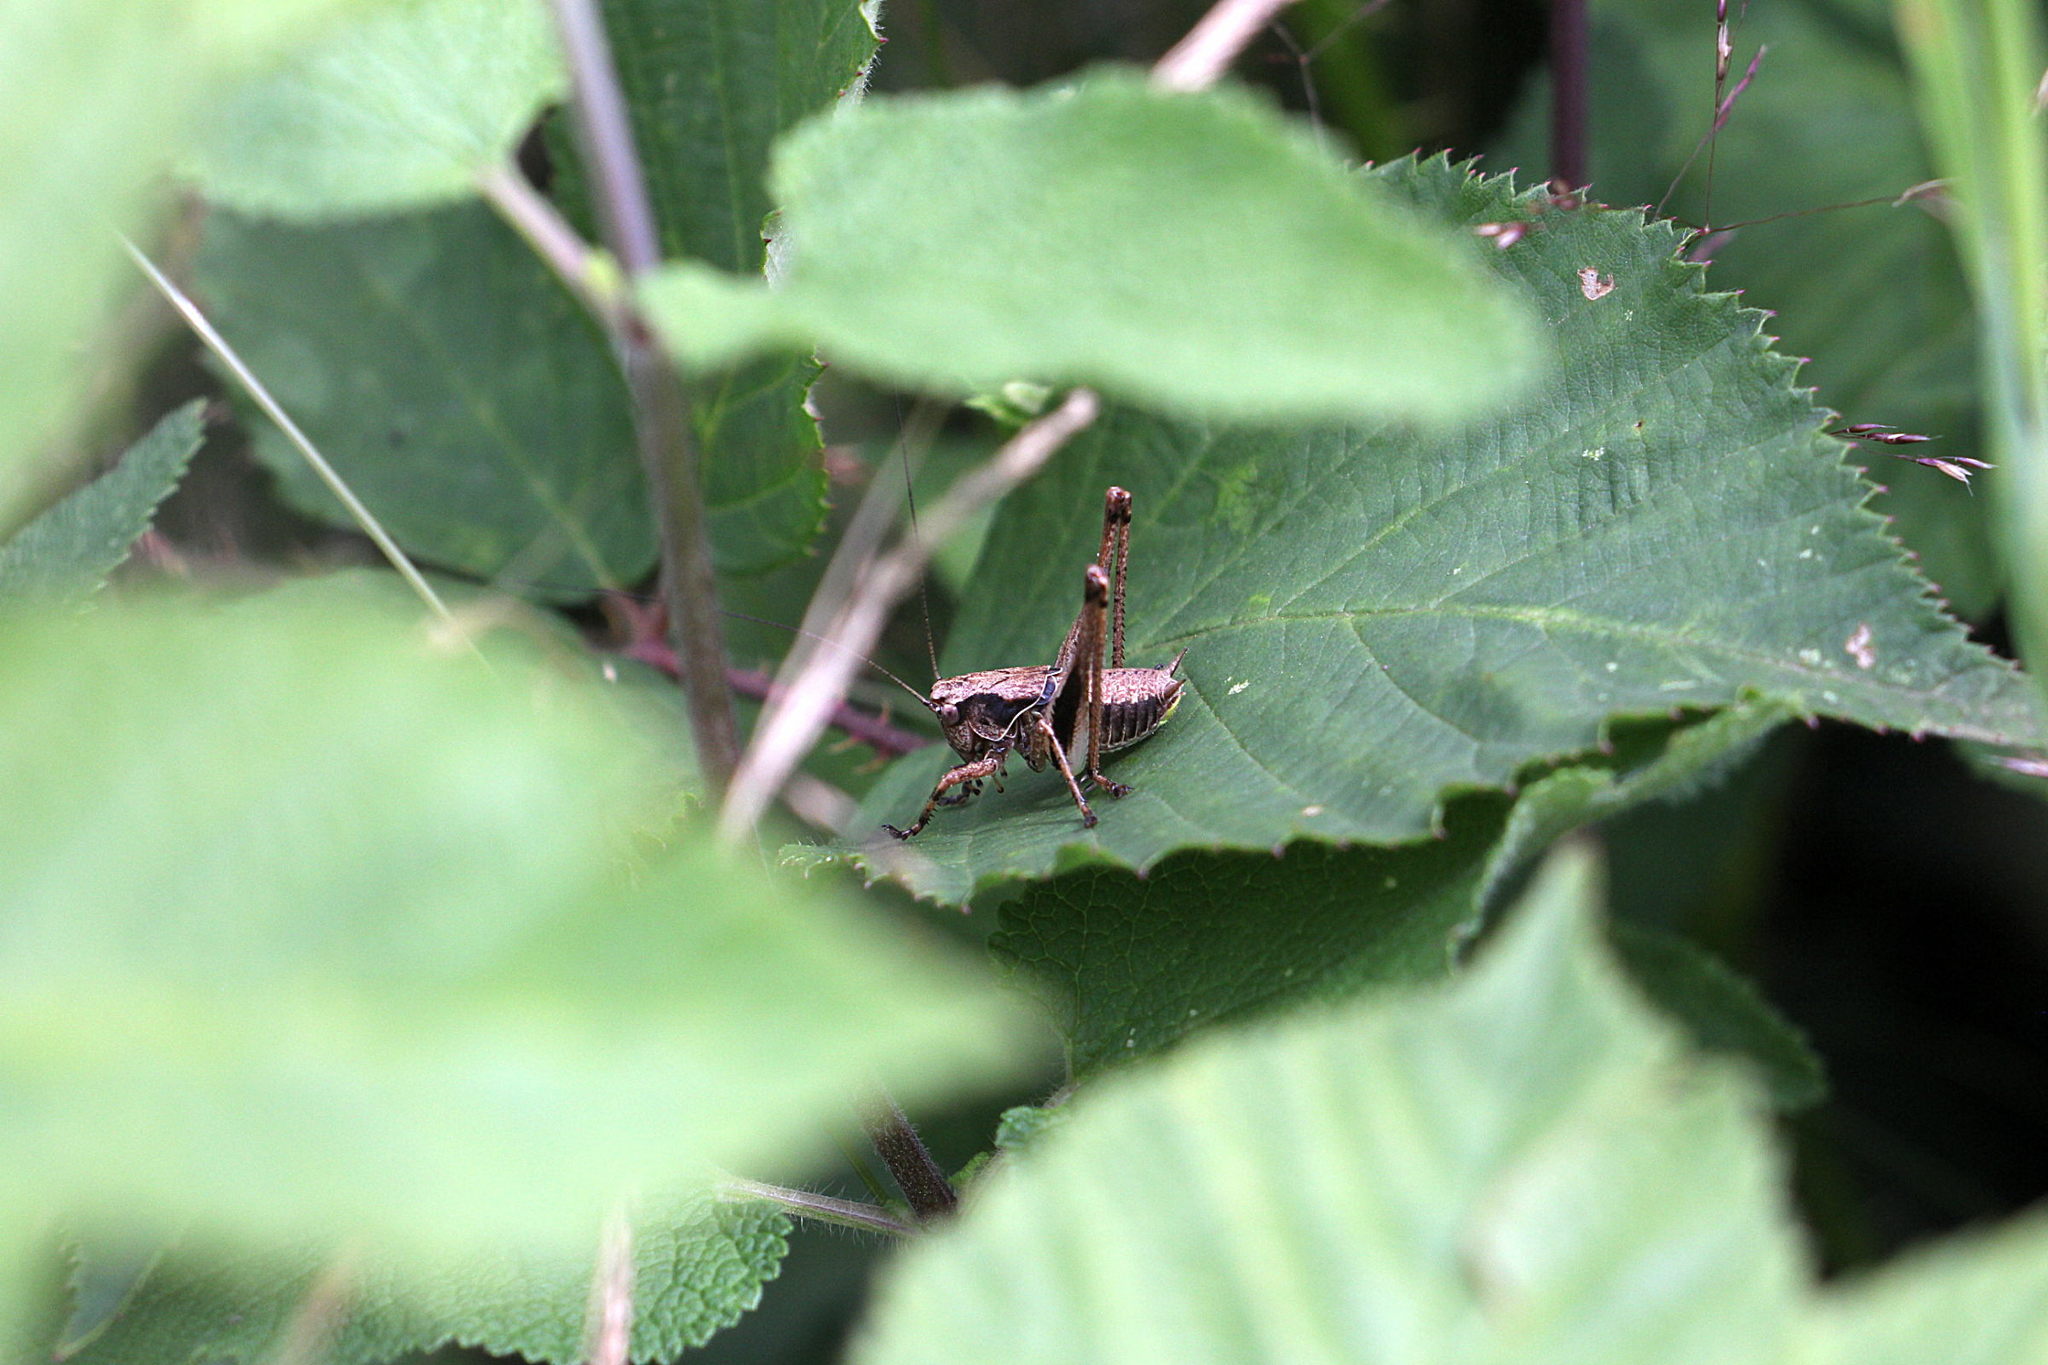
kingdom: Animalia
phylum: Arthropoda
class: Insecta
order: Orthoptera
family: Tettigoniidae
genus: Pholidoptera
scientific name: Pholidoptera griseoaptera
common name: Dark bush-cricket
